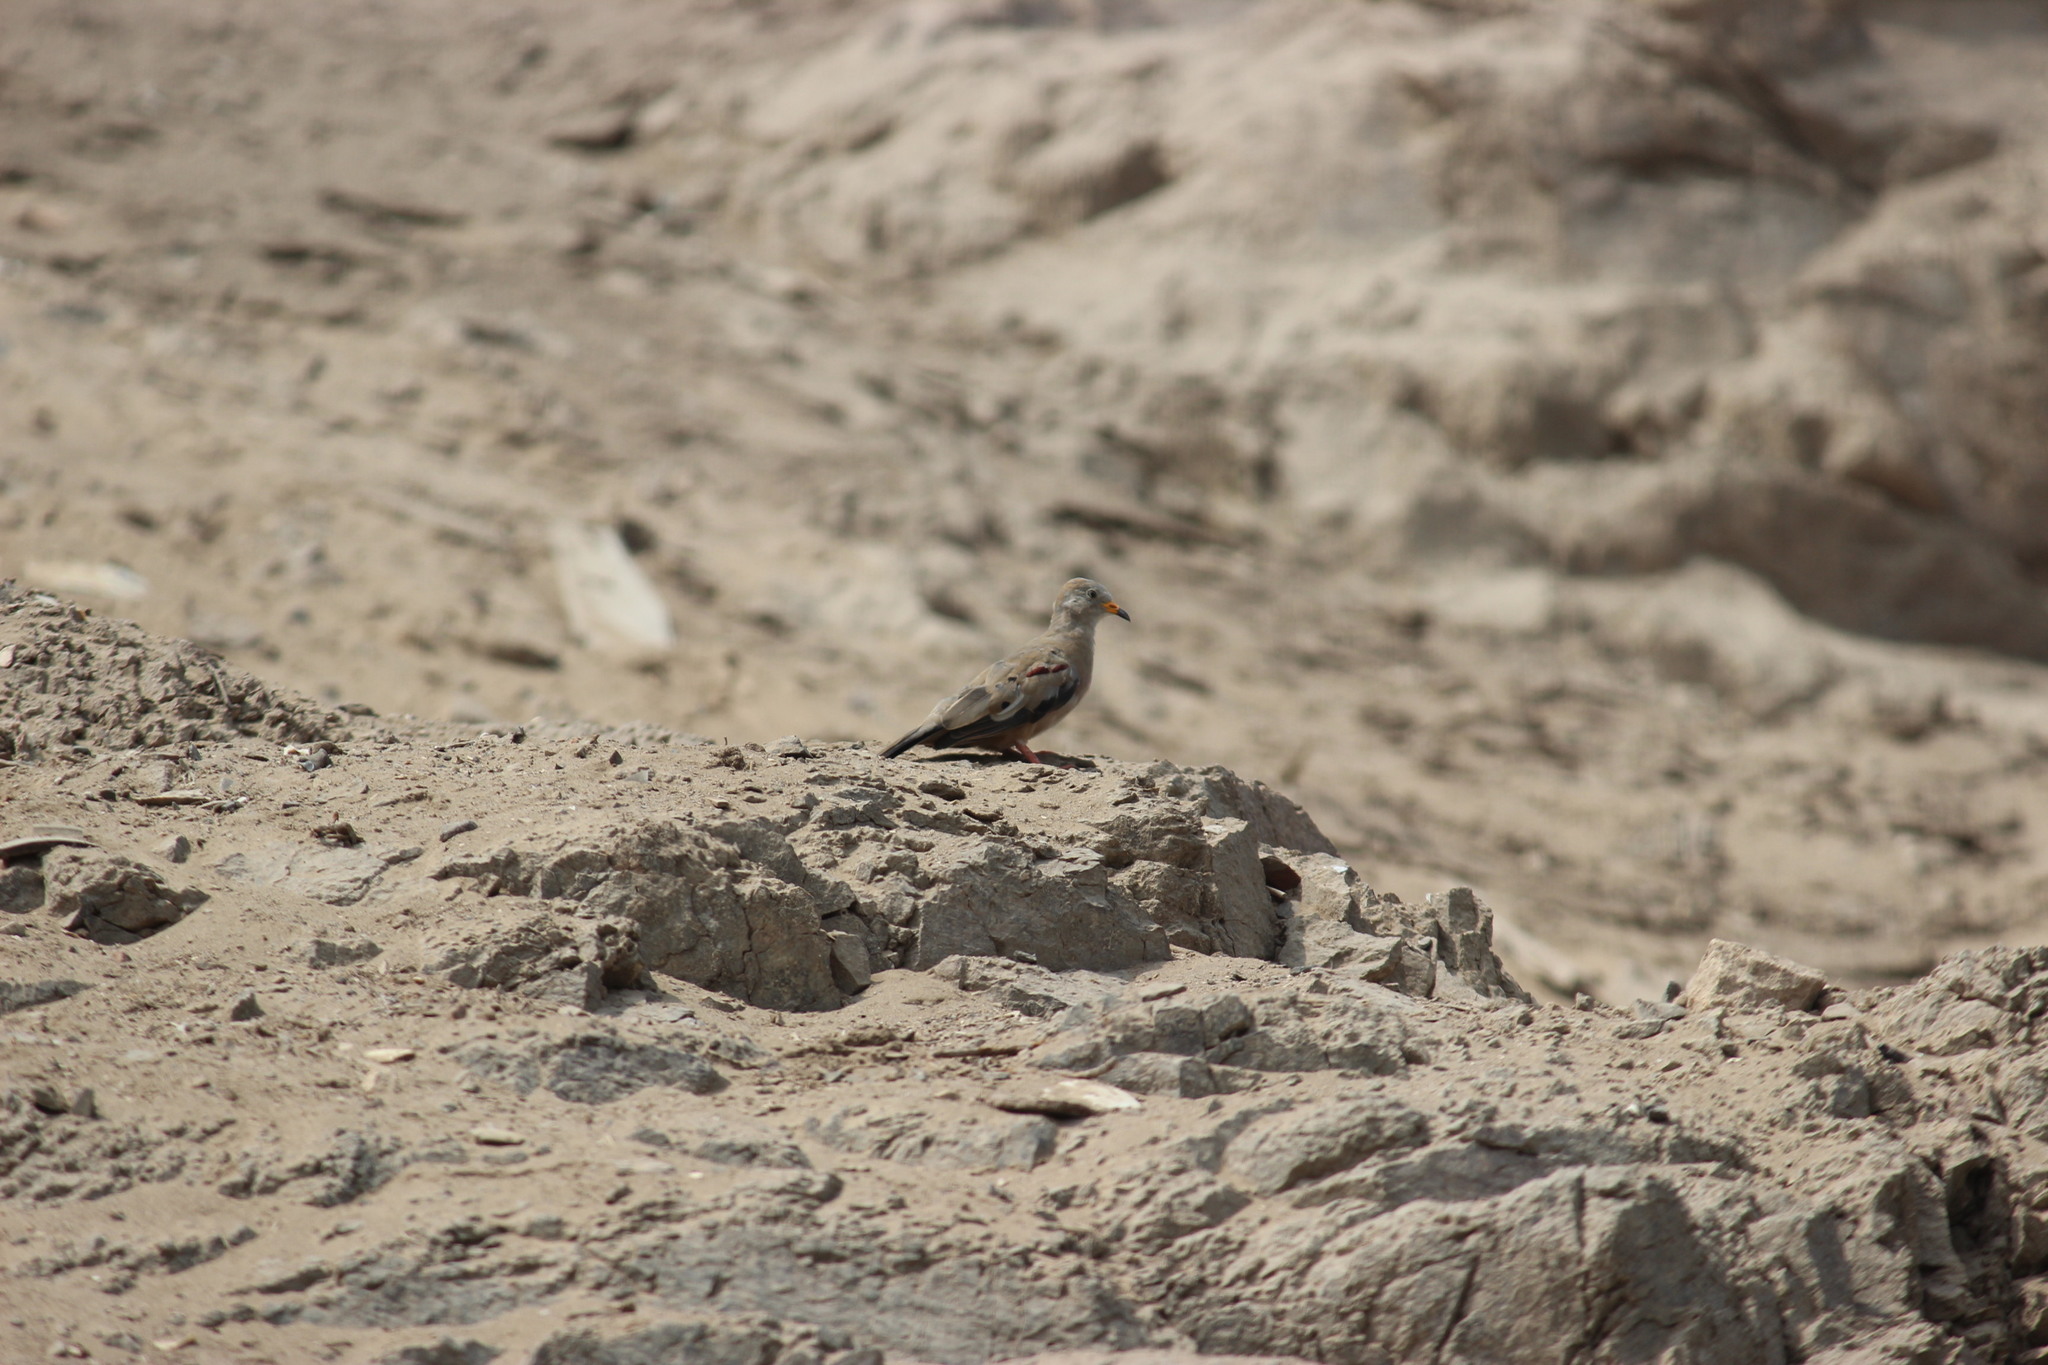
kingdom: Animalia
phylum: Chordata
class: Aves
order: Columbiformes
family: Columbidae
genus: Columbina
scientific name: Columbina cruziana
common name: Croaking ground dove
